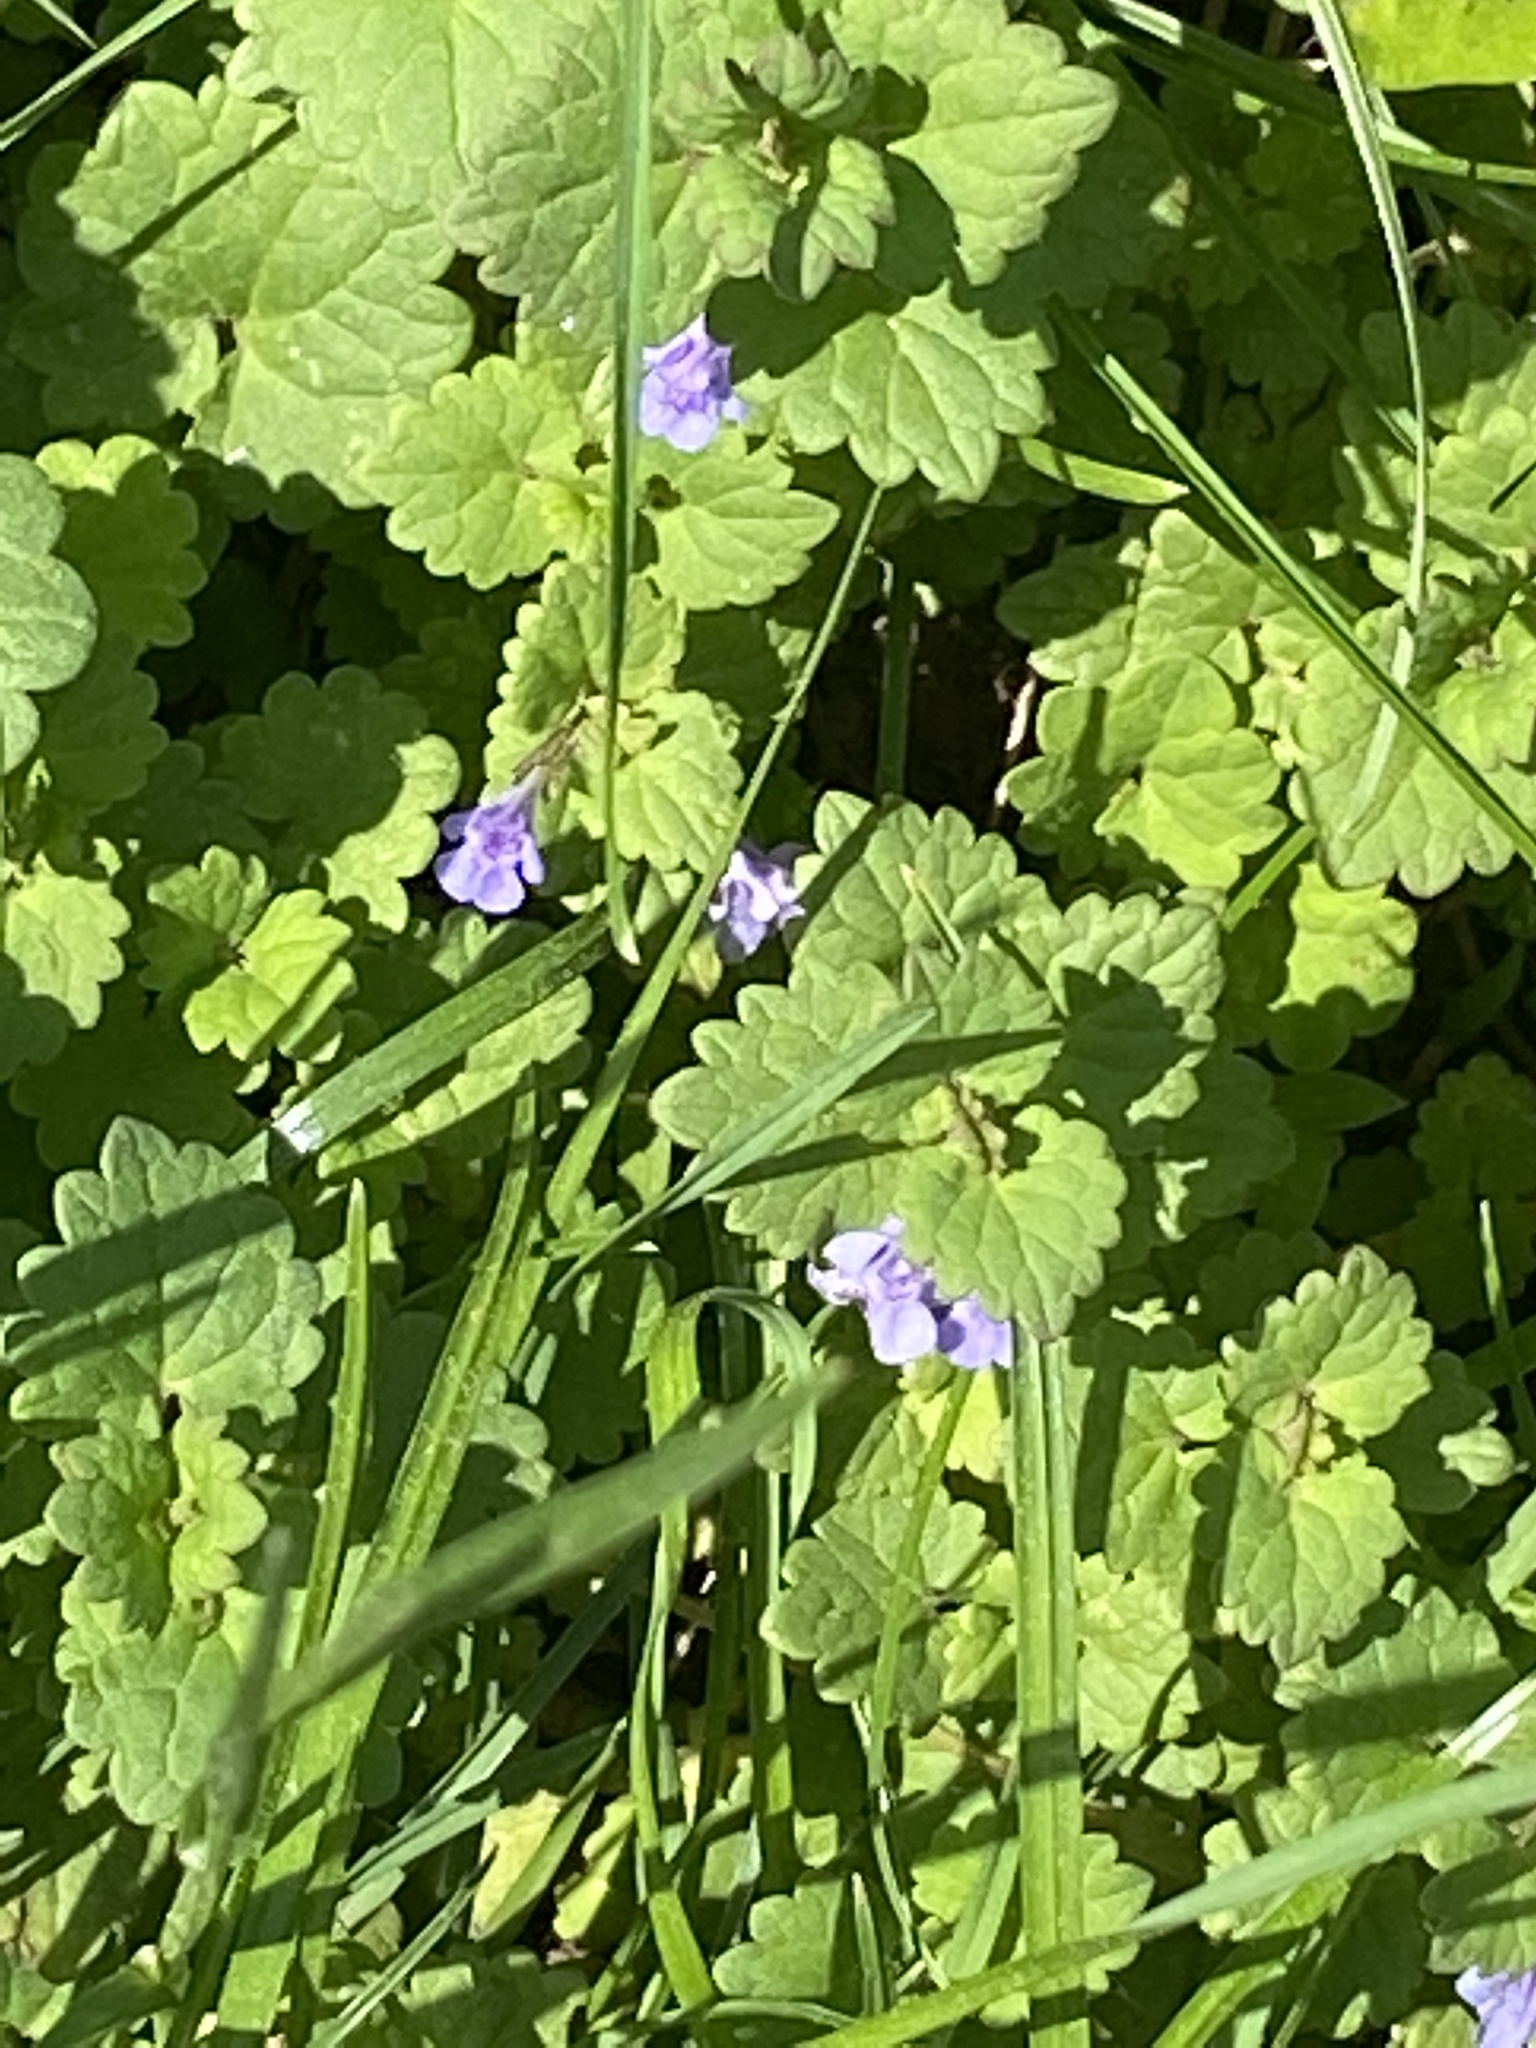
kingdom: Plantae
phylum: Tracheophyta
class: Magnoliopsida
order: Lamiales
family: Lamiaceae
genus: Glechoma
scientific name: Glechoma hederacea
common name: Ground ivy
